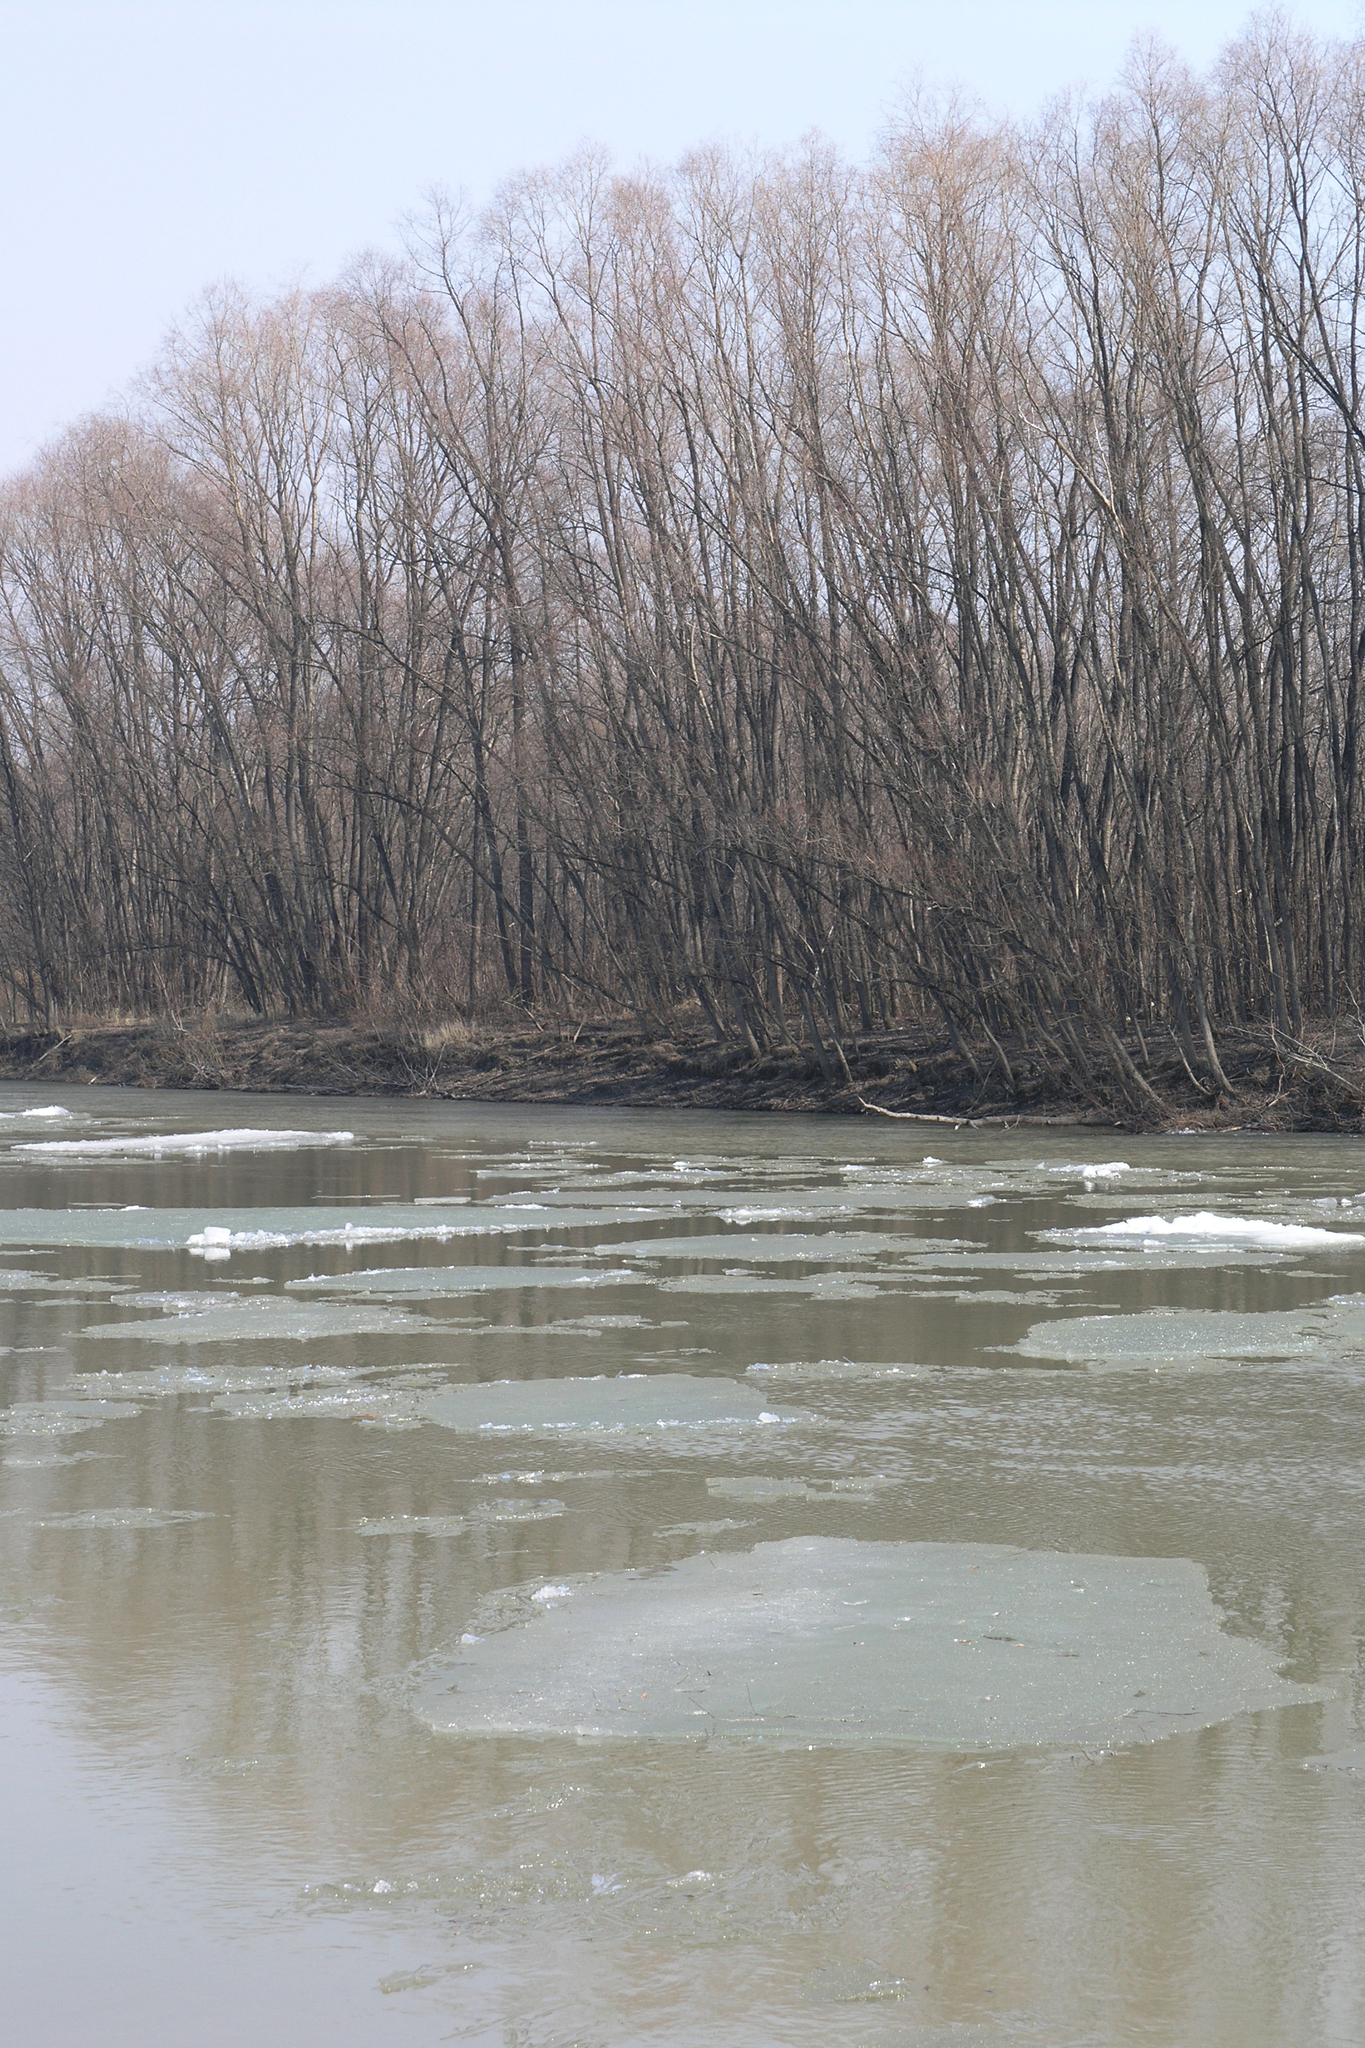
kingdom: Plantae
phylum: Tracheophyta
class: Magnoliopsida
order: Malpighiales
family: Salicaceae
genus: Salix
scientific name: Salix alba
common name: White willow
